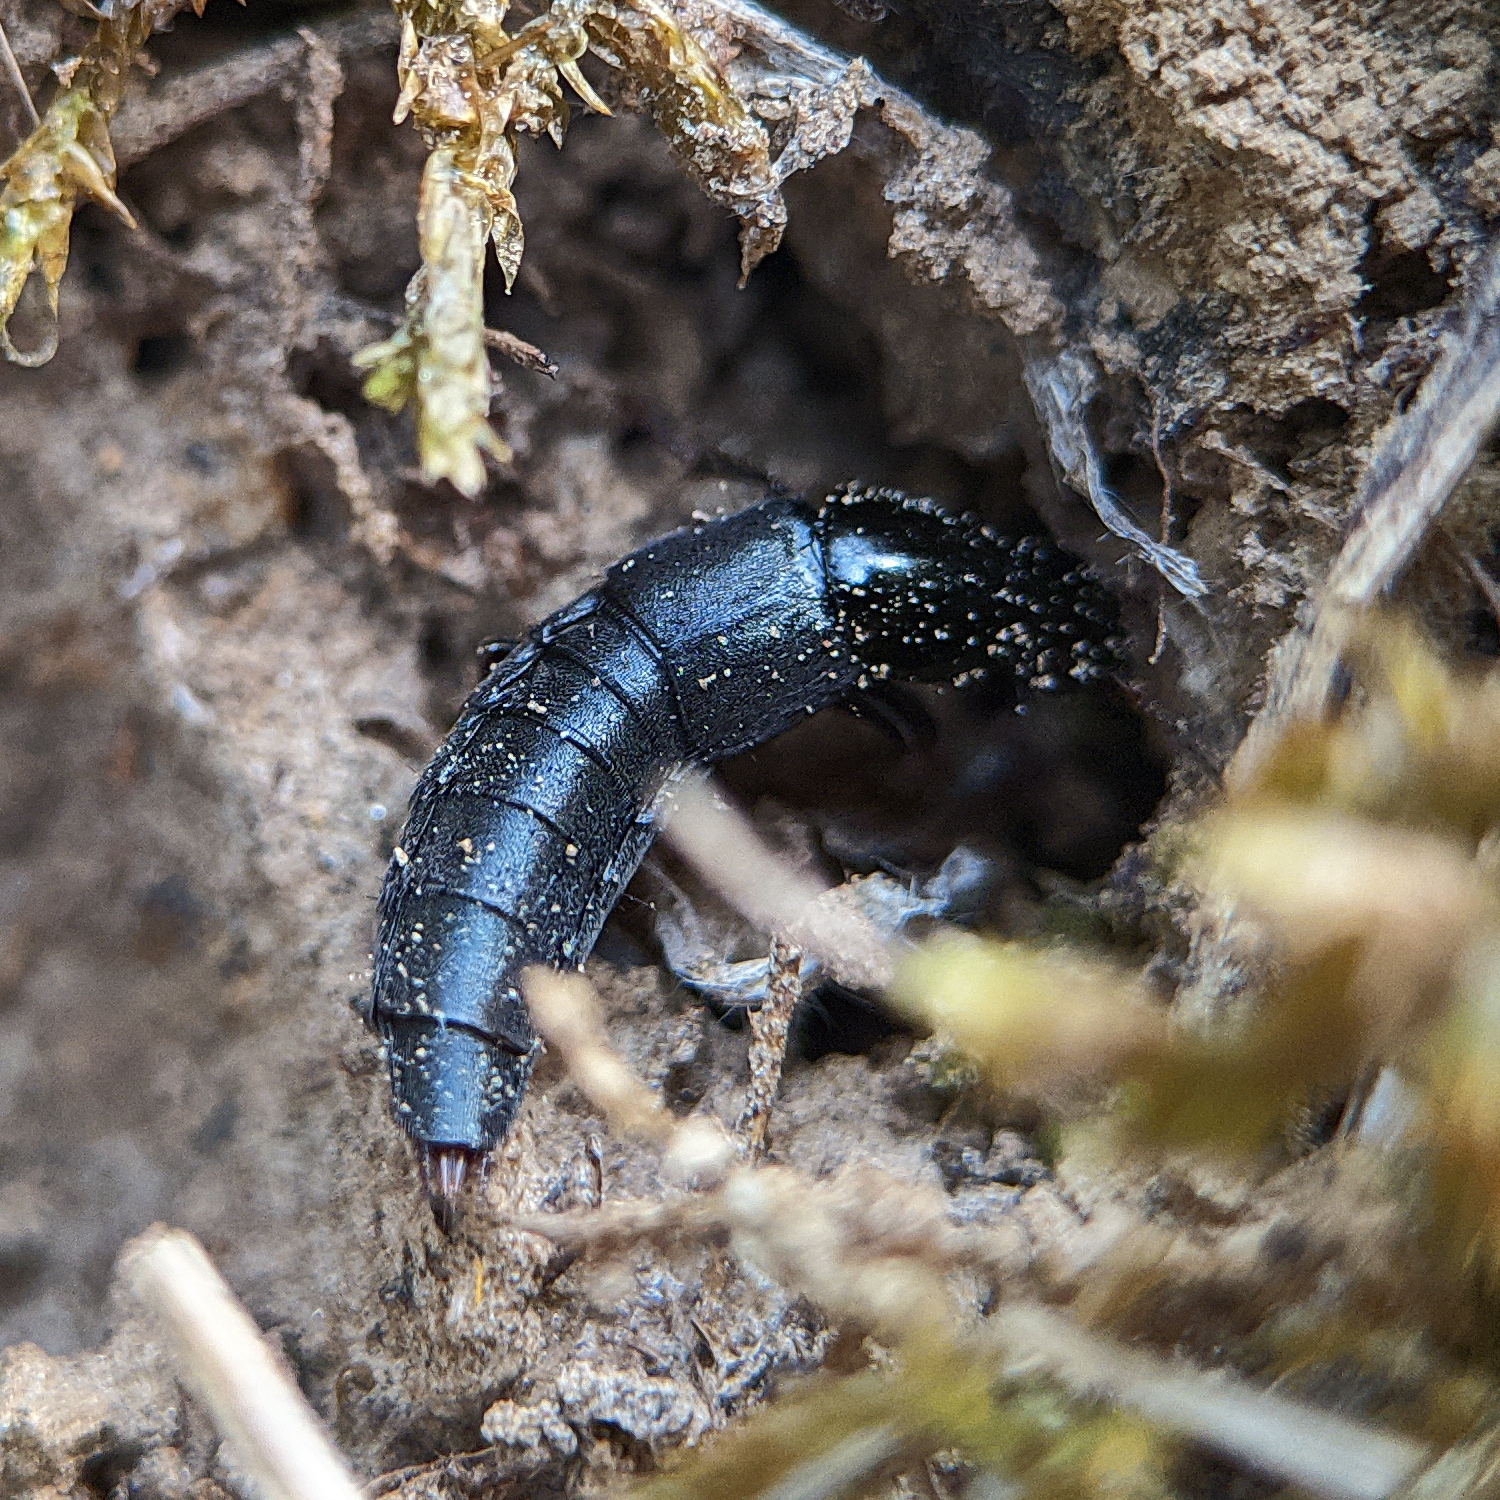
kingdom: Animalia
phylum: Arthropoda
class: Insecta
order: Coleoptera
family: Staphylinidae
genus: Quedius
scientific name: Quedius
